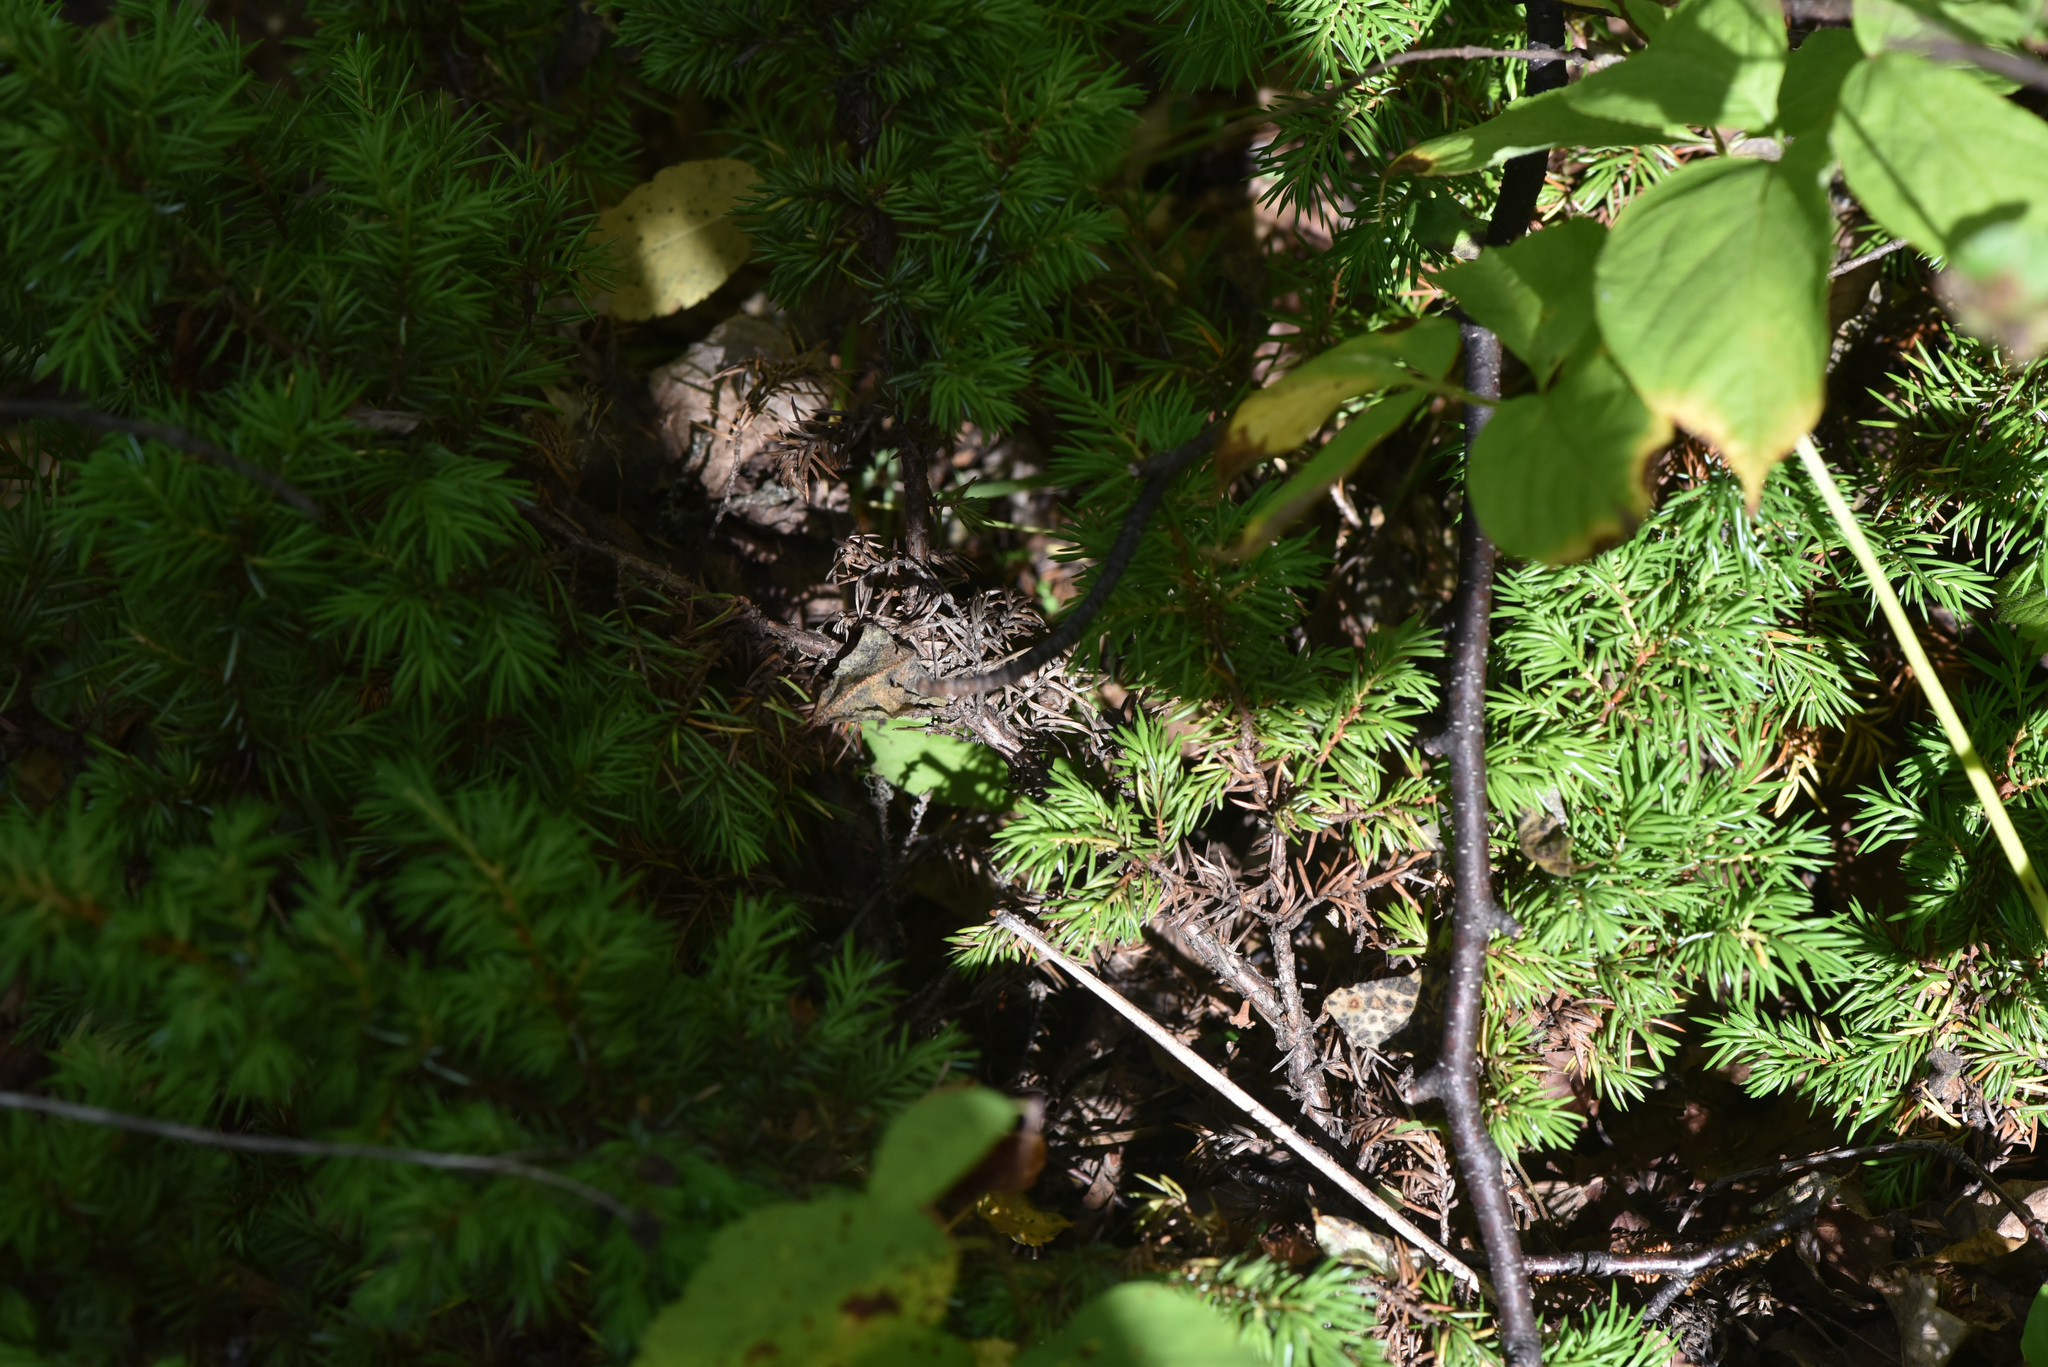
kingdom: Plantae
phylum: Tracheophyta
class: Pinopsida
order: Pinales
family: Cupressaceae
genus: Juniperus
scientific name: Juniperus communis
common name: Common juniper
